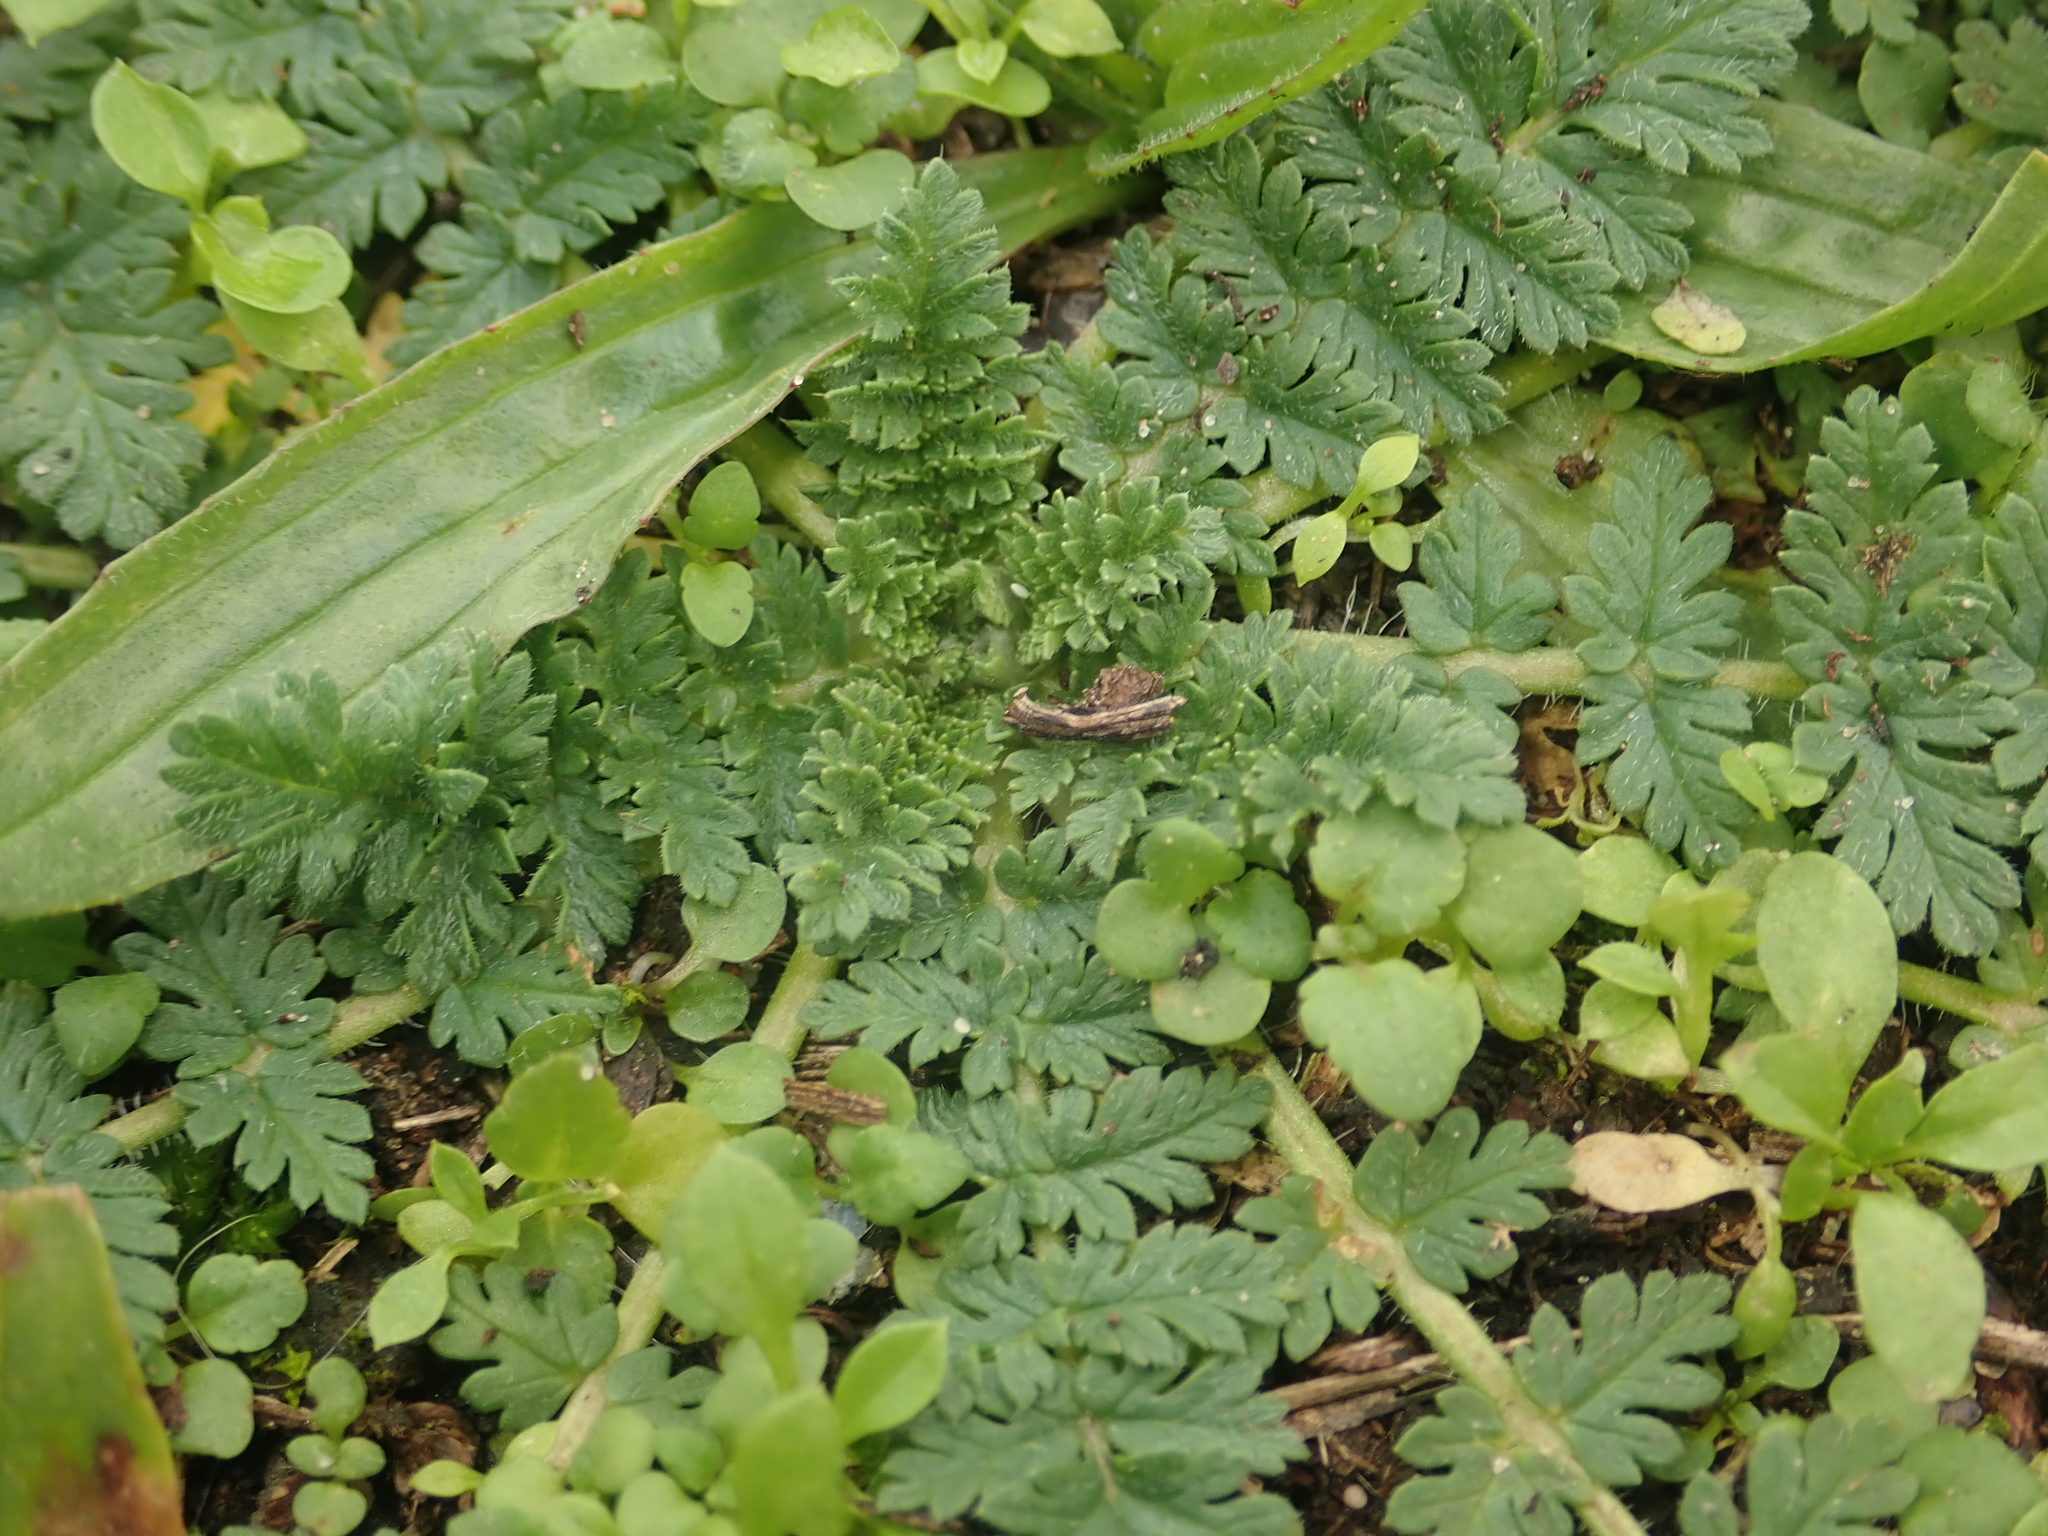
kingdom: Plantae
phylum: Tracheophyta
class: Magnoliopsida
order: Geraniales
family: Geraniaceae
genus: Erodium
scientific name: Erodium cicutarium
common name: Common stork's-bill
